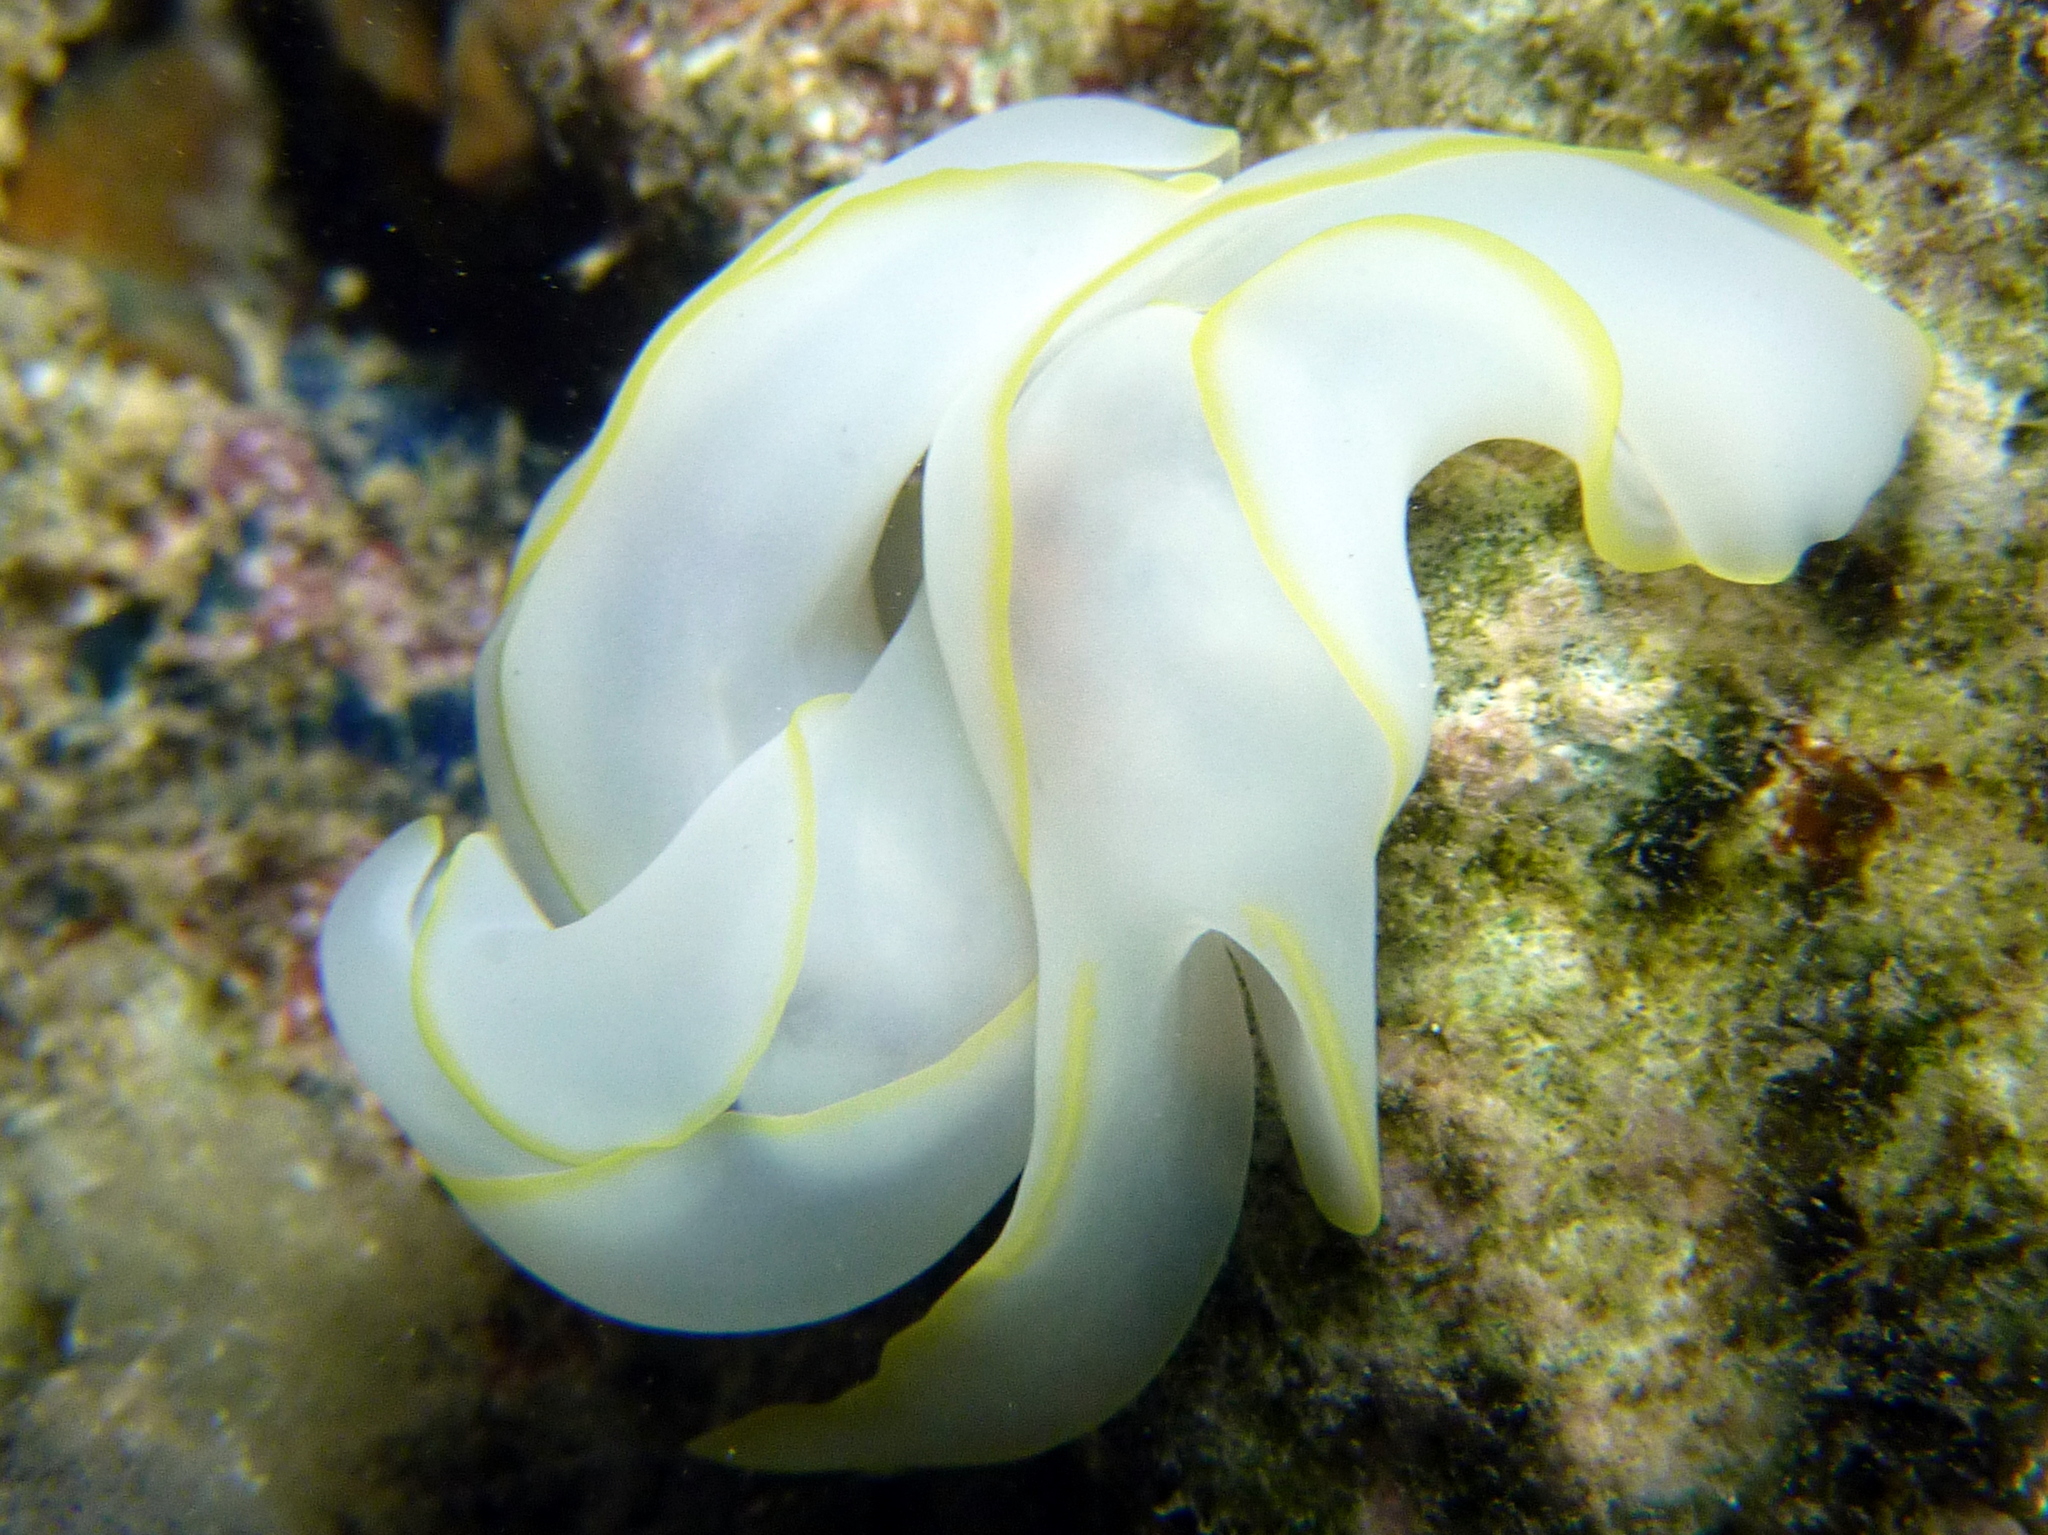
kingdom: Animalia
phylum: Mollusca
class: Gastropoda
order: Cephalaspidea
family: Aglajidae
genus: Chelidonura
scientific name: Chelidonura electra
